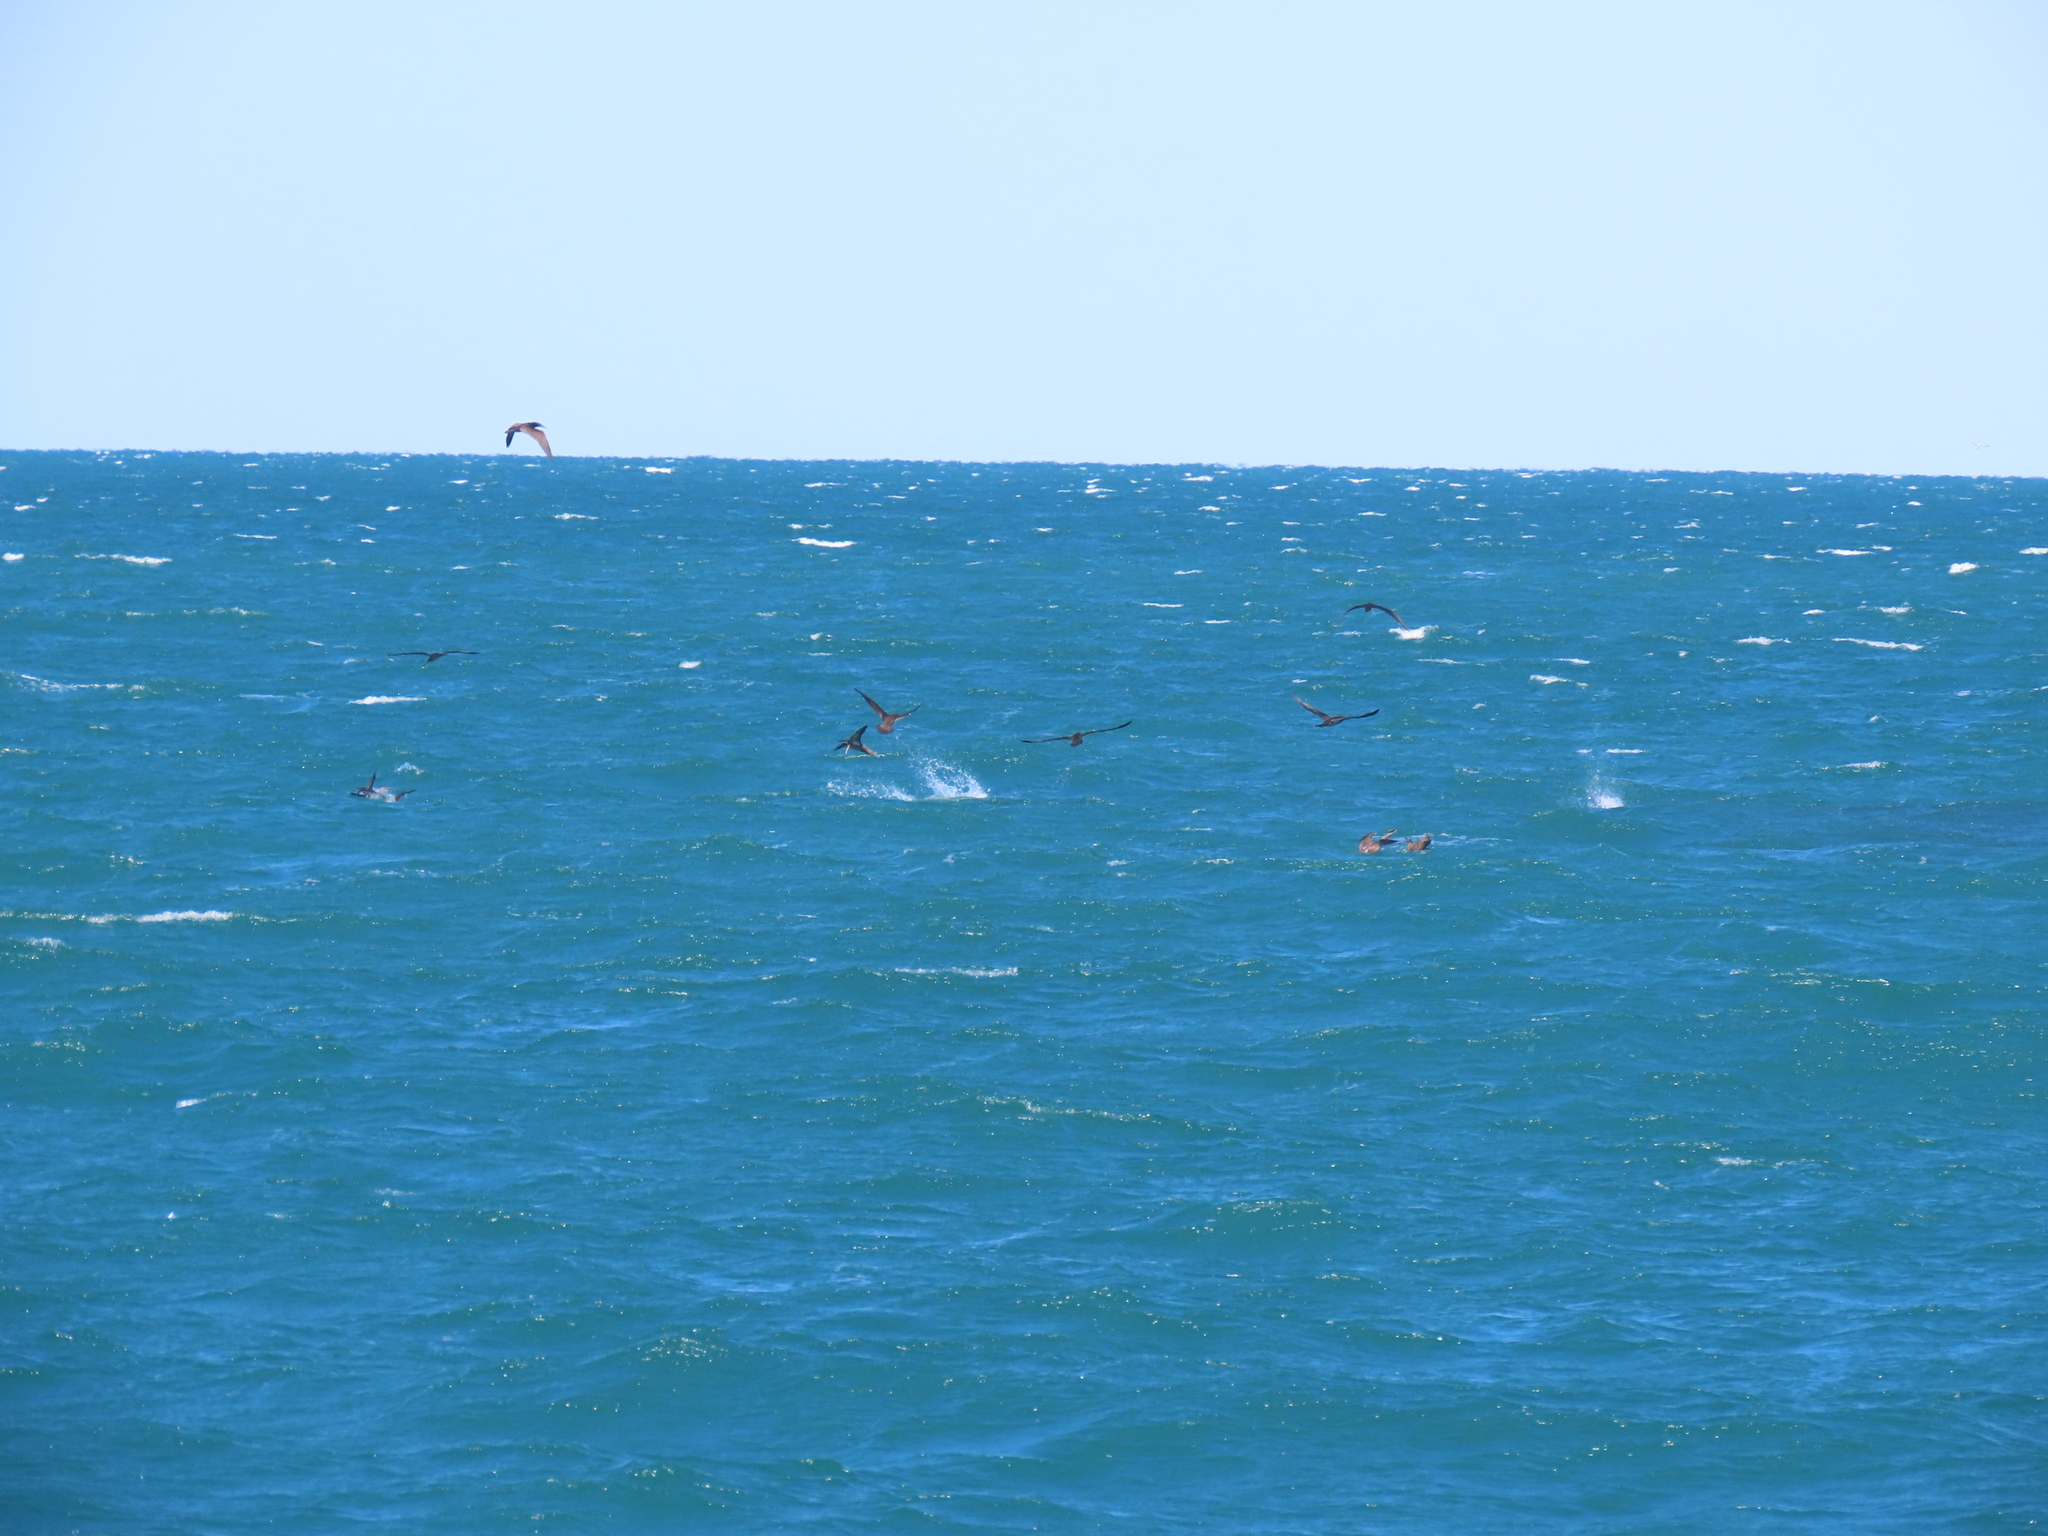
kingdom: Animalia
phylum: Chordata
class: Aves
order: Suliformes
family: Sulidae
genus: Sula
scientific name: Sula leucogaster
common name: Brown booby
